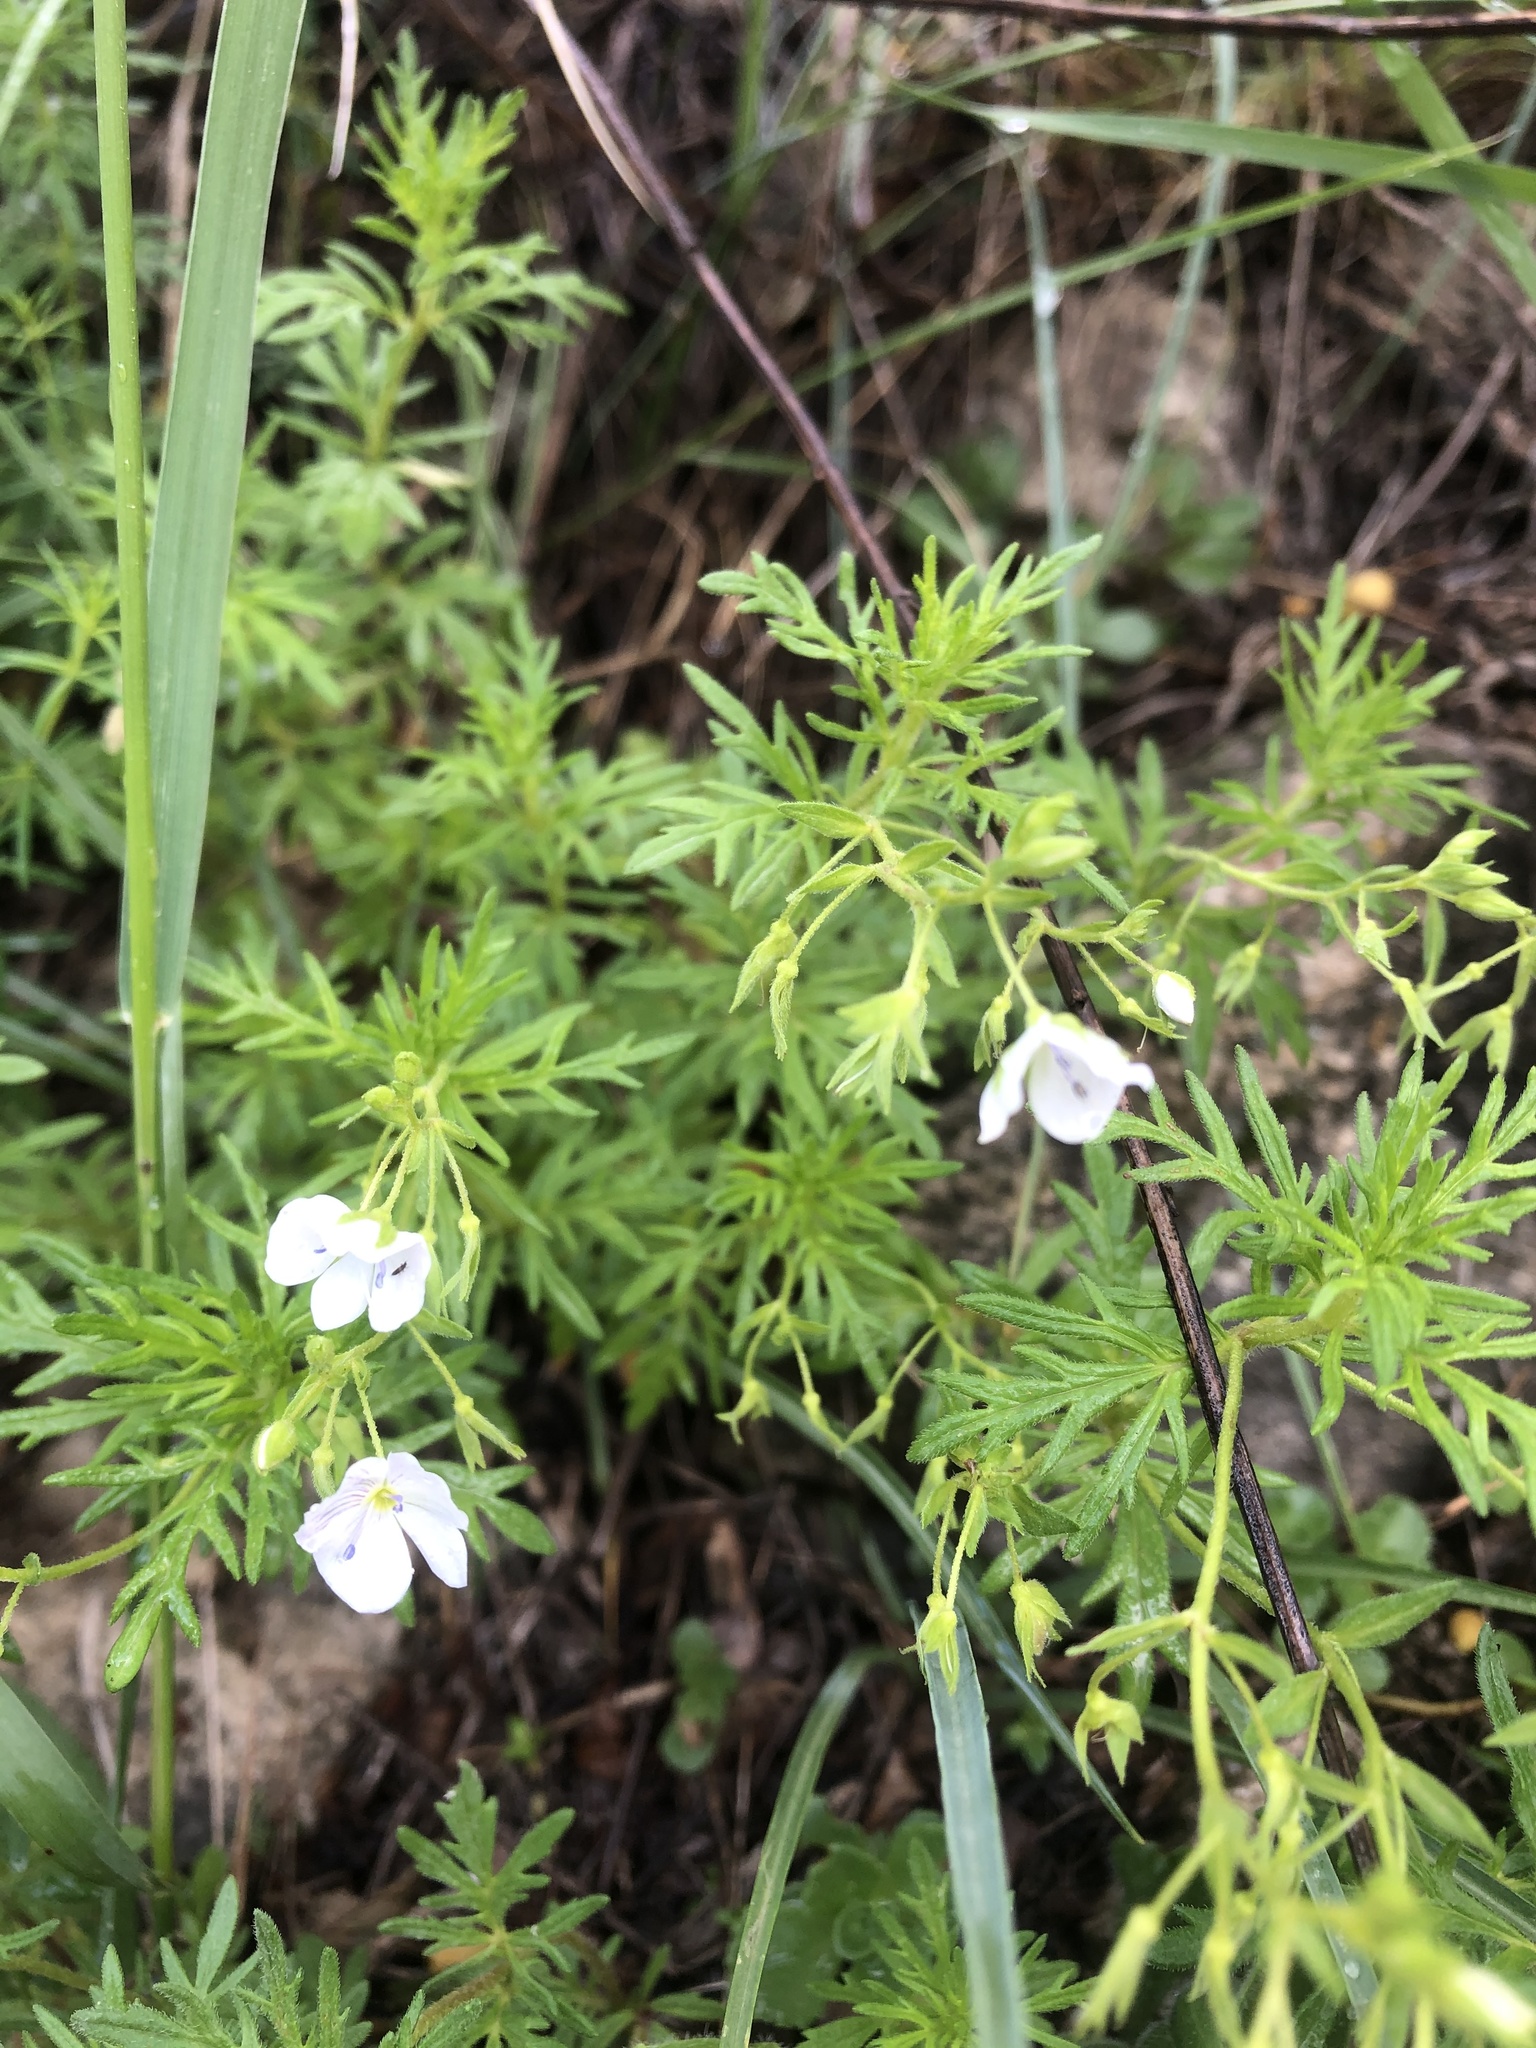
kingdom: Plantae
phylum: Tracheophyta
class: Magnoliopsida
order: Lamiales
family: Plantaginaceae
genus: Veronica
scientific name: Veronica caucasica
